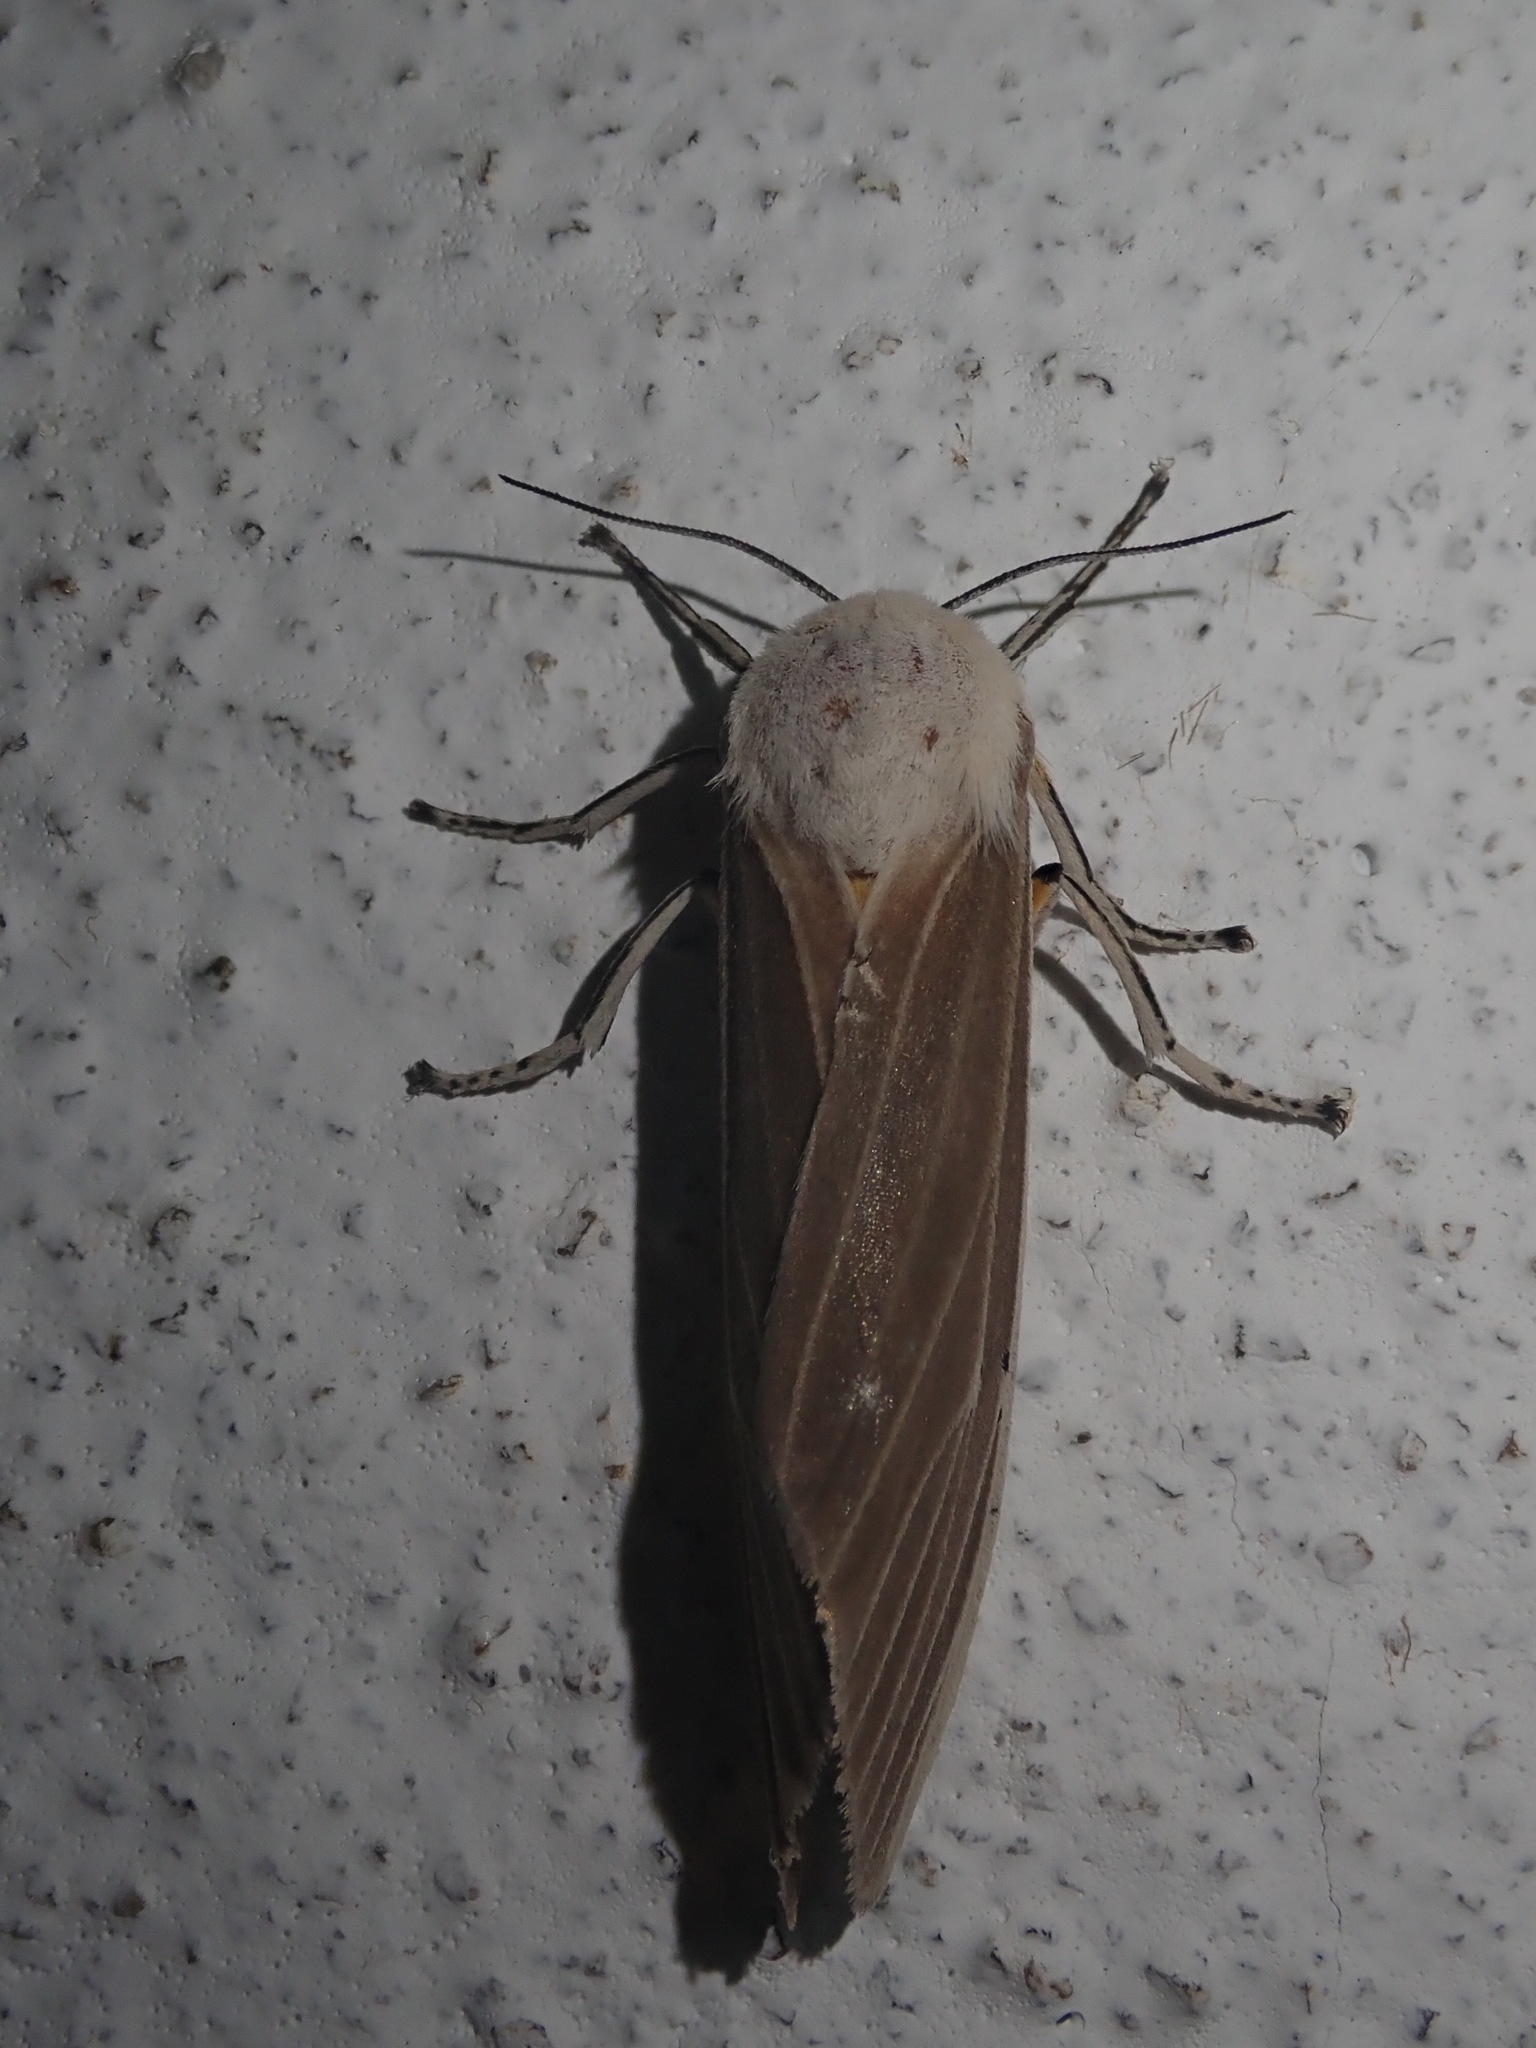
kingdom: Animalia
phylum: Arthropoda
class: Insecta
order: Lepidoptera
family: Erebidae
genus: Creatonotos
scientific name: Creatonotos transiens
